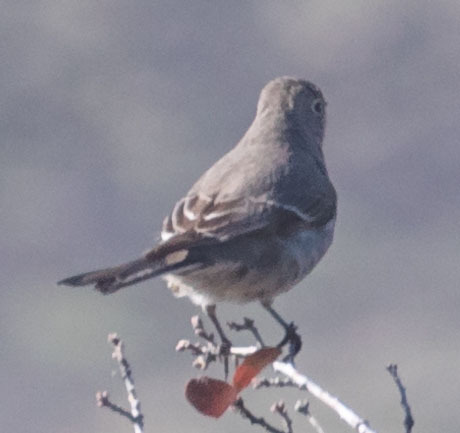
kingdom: Animalia
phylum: Chordata
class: Aves
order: Passeriformes
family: Turdidae
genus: Myadestes
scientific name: Myadestes townsendi
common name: Townsend's solitaire
